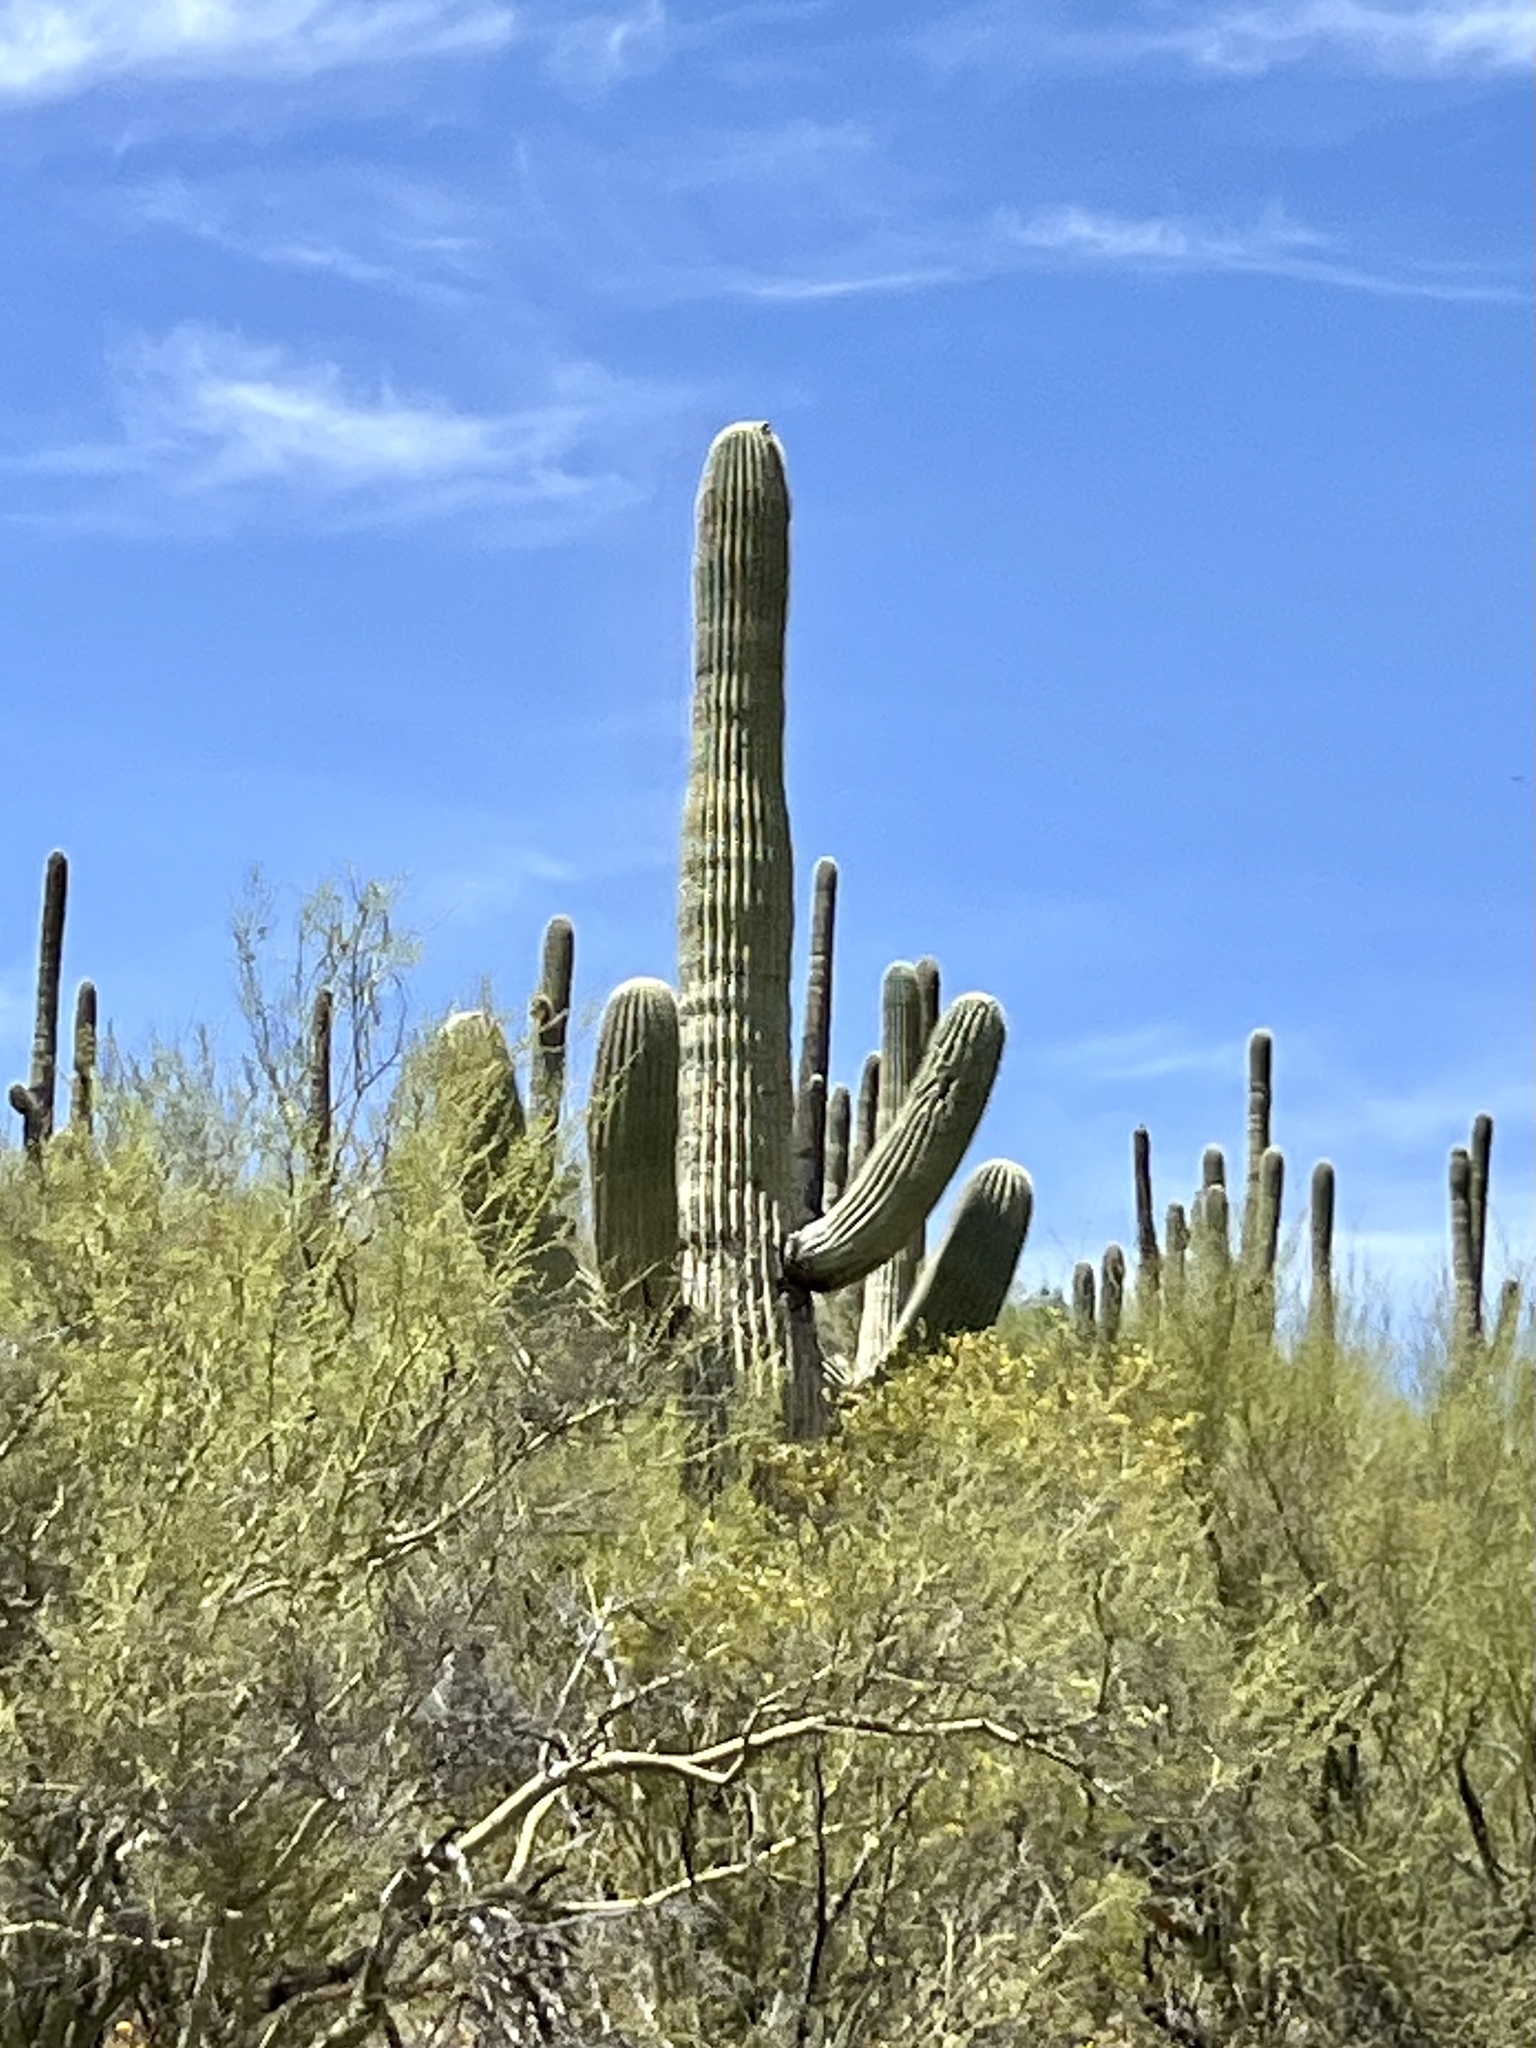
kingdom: Plantae
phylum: Tracheophyta
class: Magnoliopsida
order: Caryophyllales
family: Cactaceae
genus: Carnegiea
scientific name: Carnegiea gigantea
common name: Saguaro
